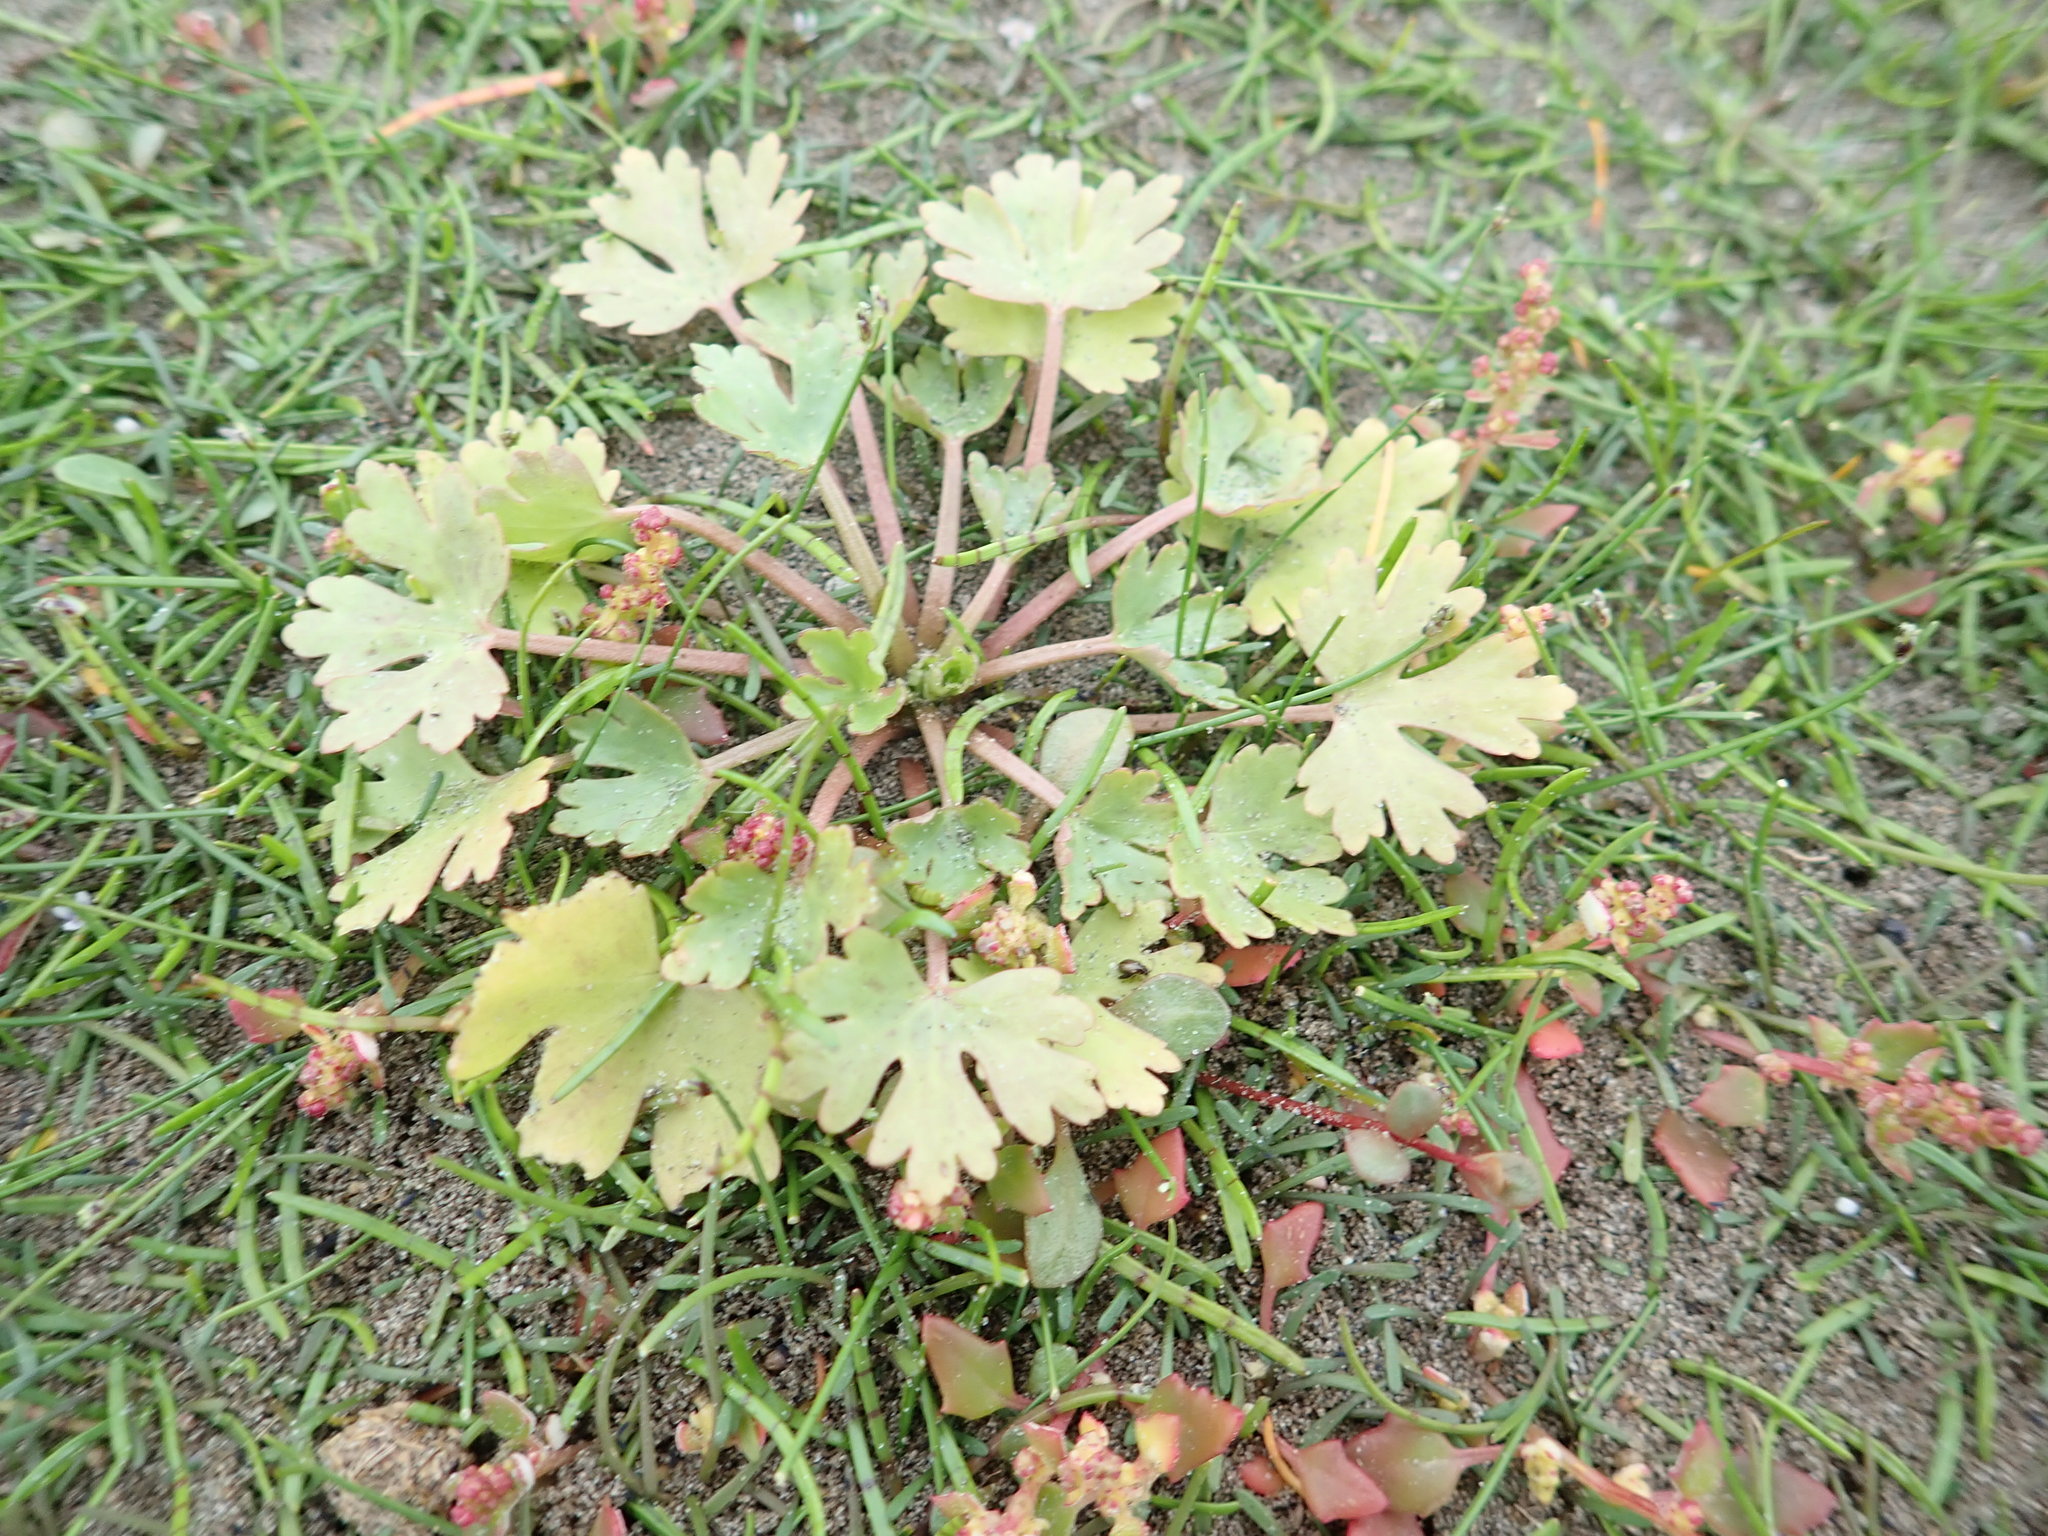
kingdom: Plantae
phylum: Tracheophyta
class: Magnoliopsida
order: Ranunculales
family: Ranunculaceae
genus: Ranunculus
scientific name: Ranunculus sceleratus
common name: Celery-leaved buttercup
